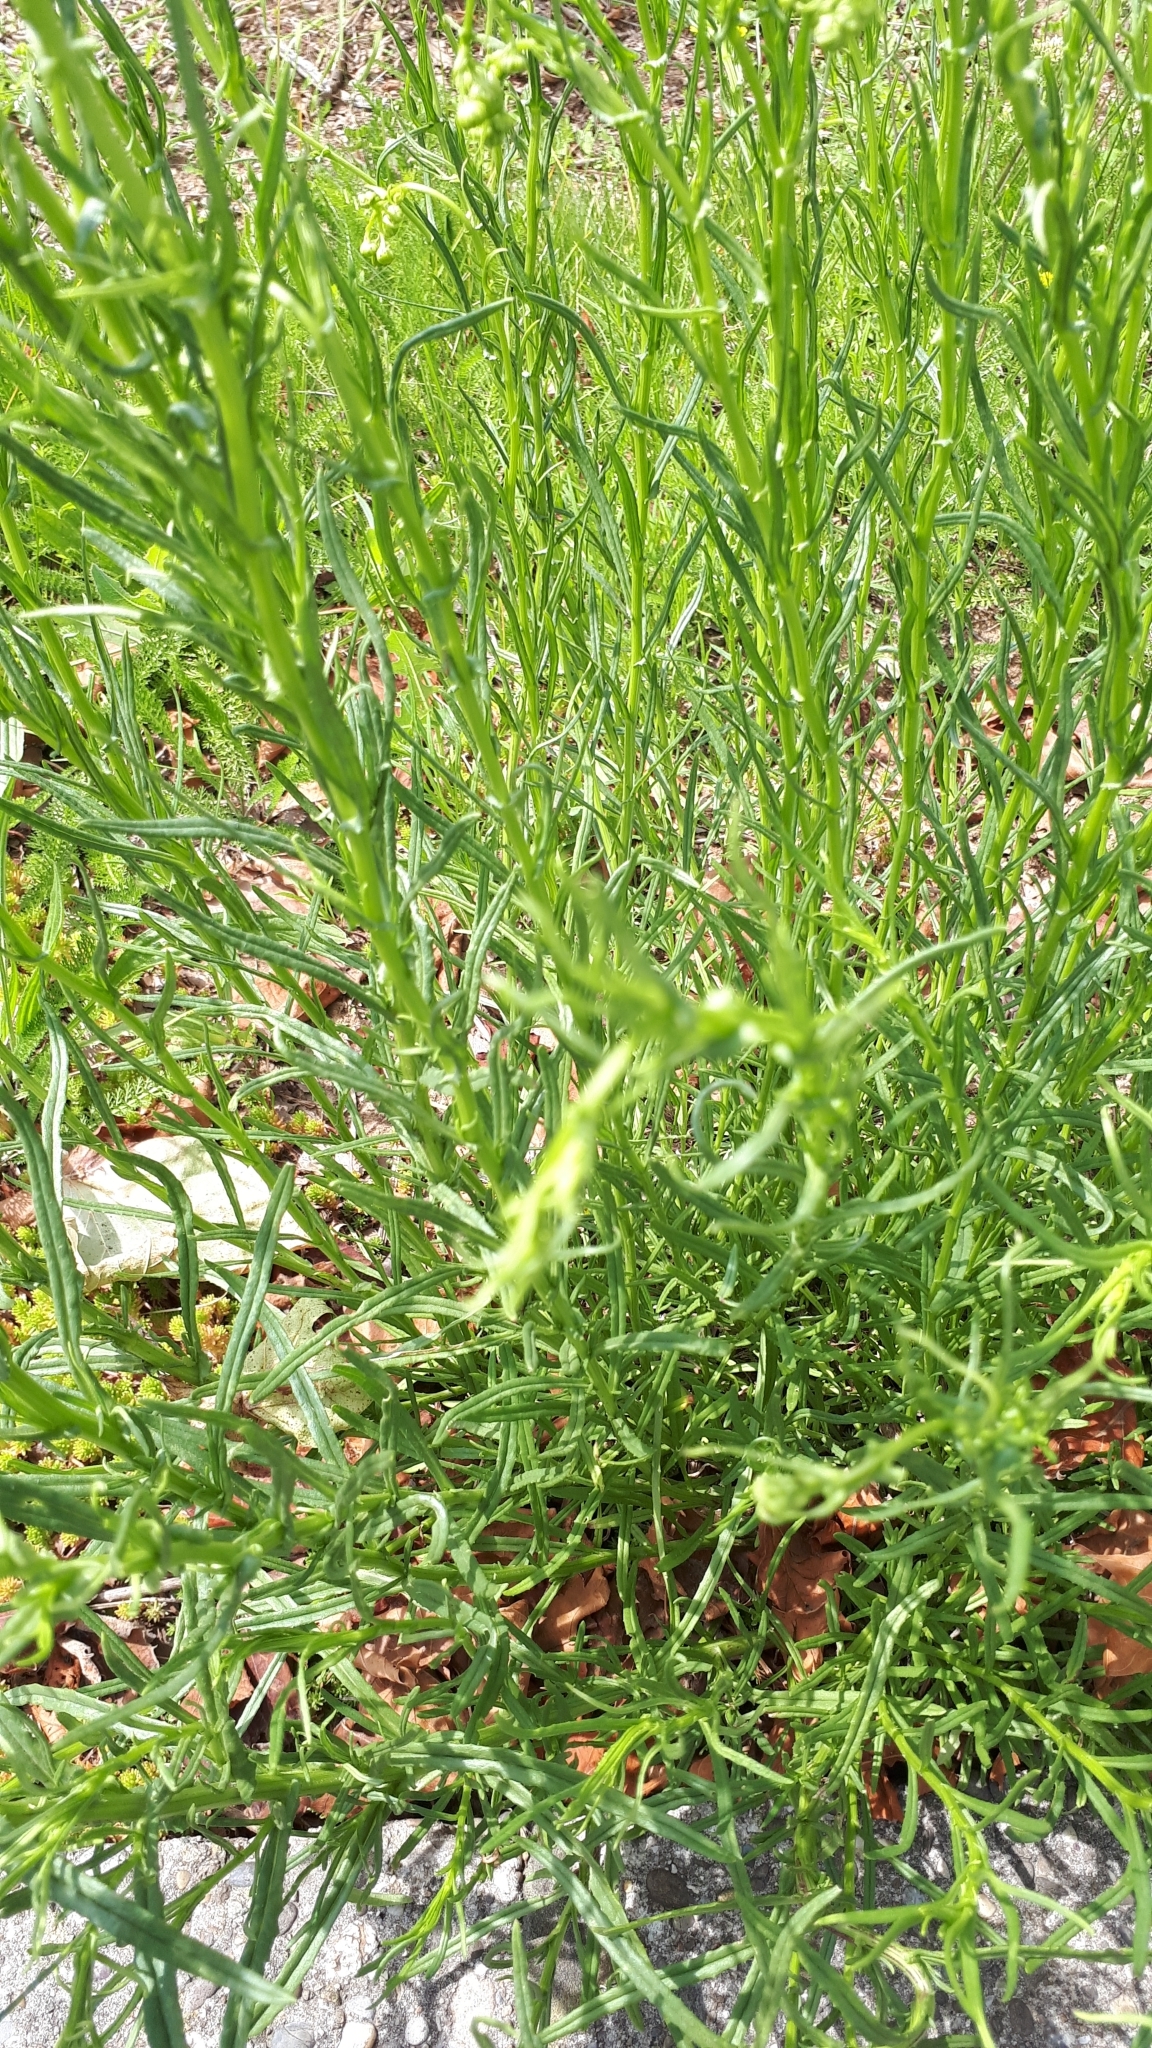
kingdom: Plantae
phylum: Tracheophyta
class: Magnoliopsida
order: Asterales
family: Asteraceae
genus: Senecio
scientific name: Senecio inaequidens
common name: Narrow-leaved ragwort
